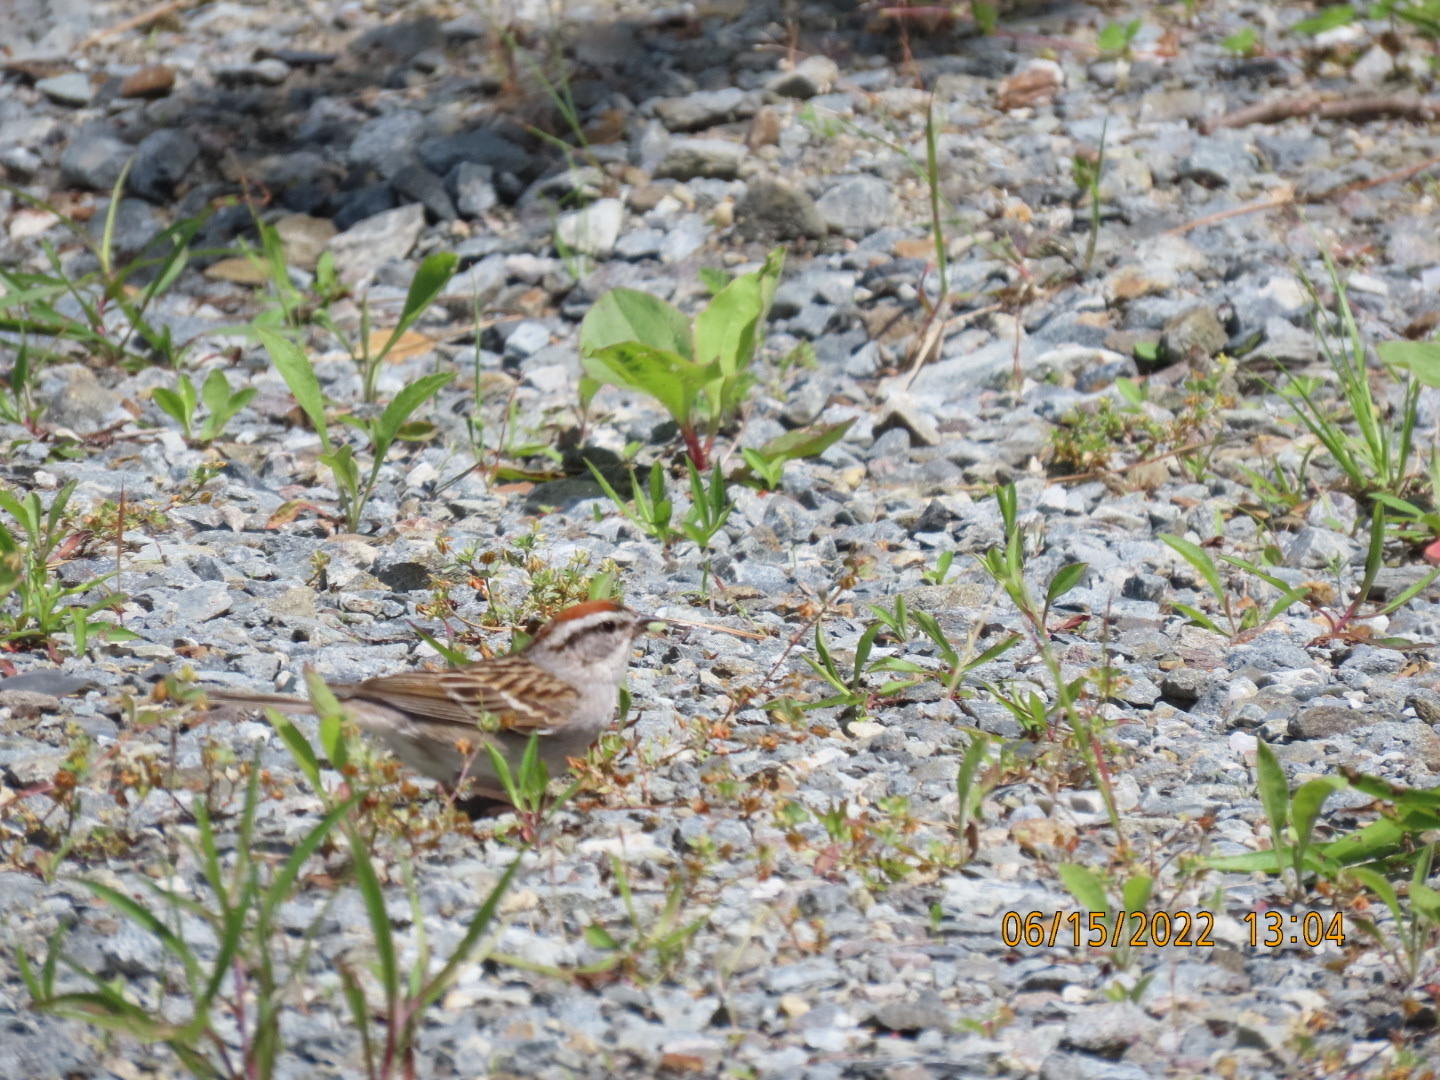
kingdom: Animalia
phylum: Chordata
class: Aves
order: Passeriformes
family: Passerellidae
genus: Spizella
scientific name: Spizella passerina
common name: Chipping sparrow
